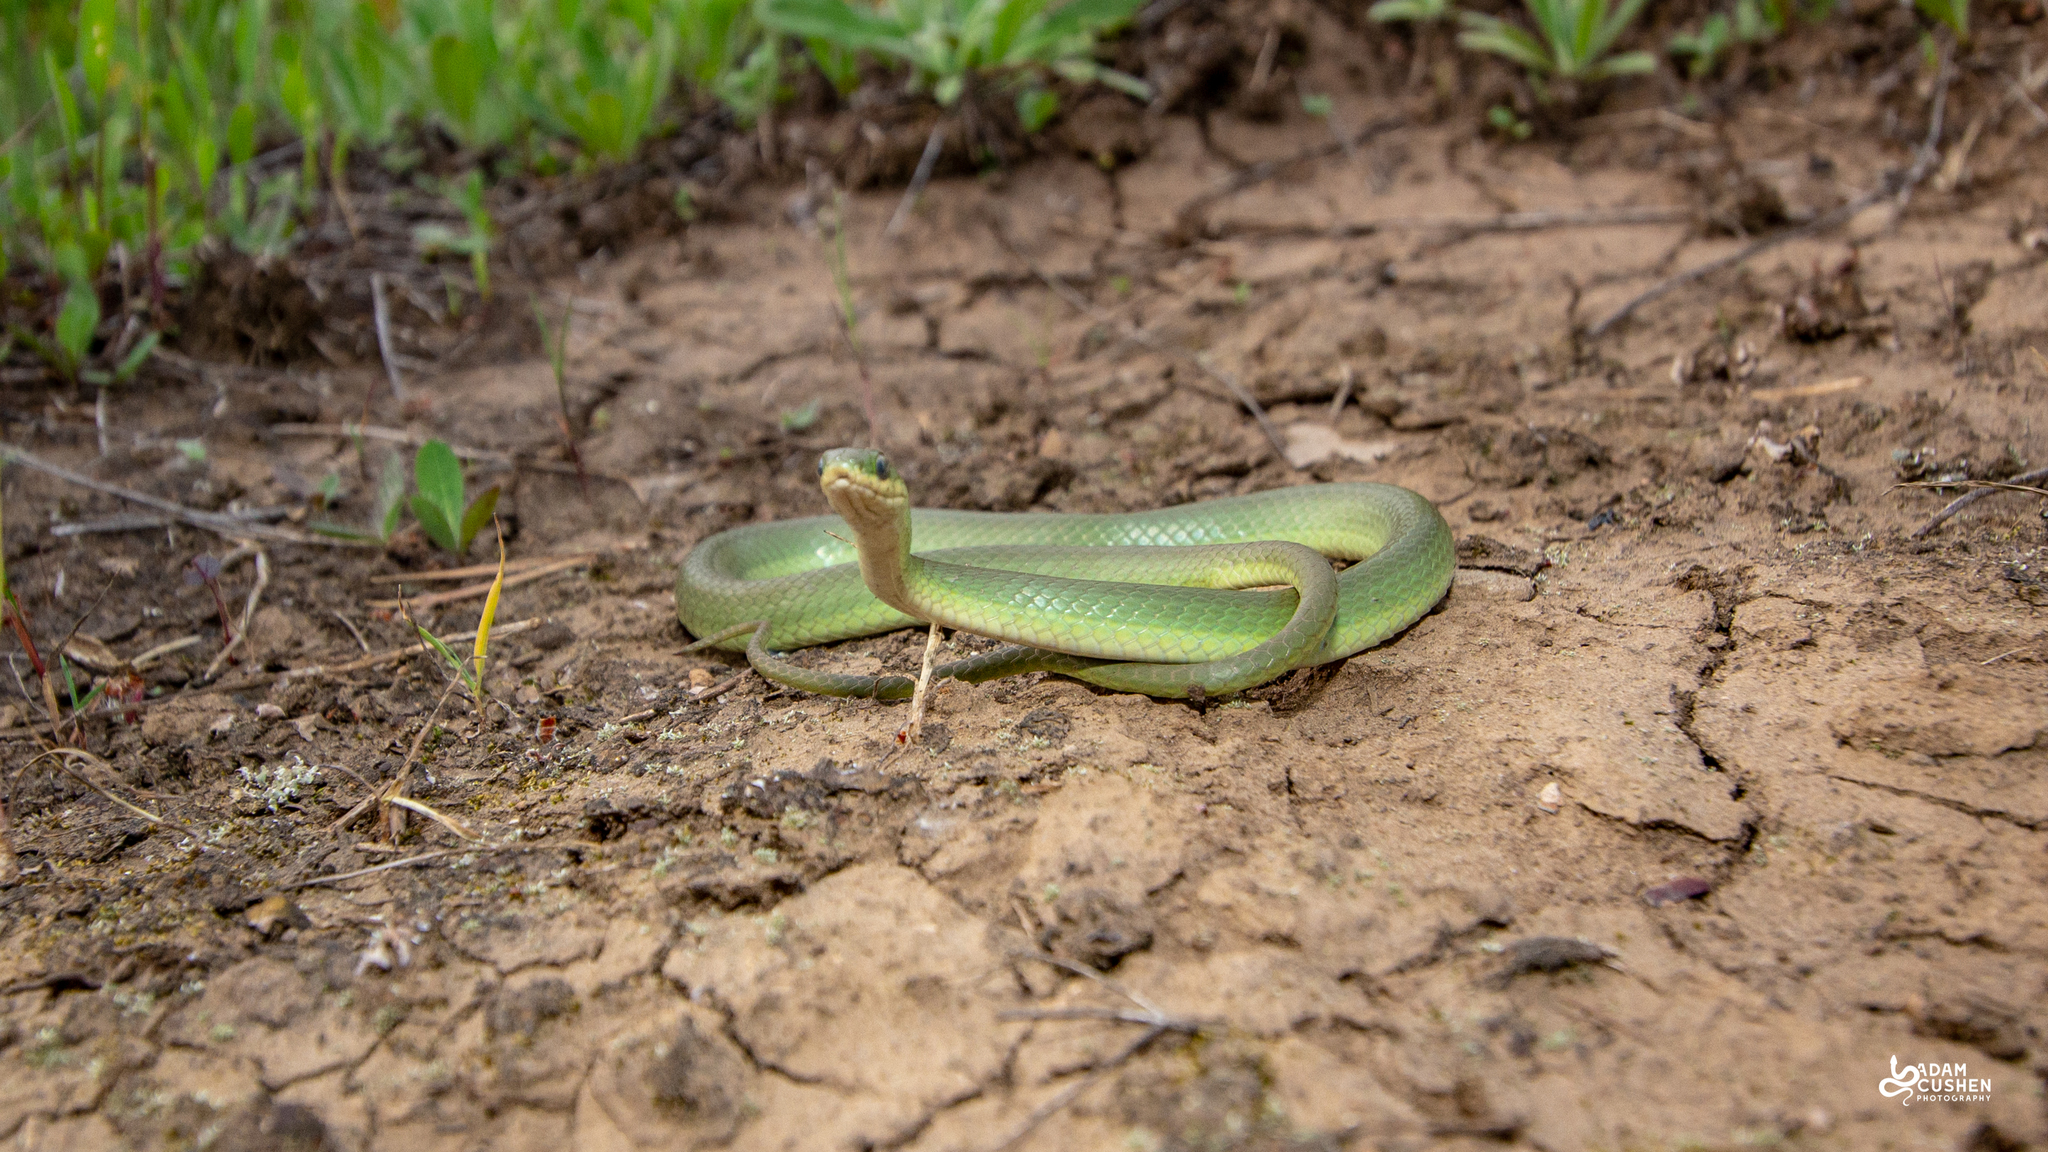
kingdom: Animalia
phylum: Chordata
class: Squamata
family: Colubridae
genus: Opheodrys
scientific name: Opheodrys vernalis
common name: Smooth green snake
